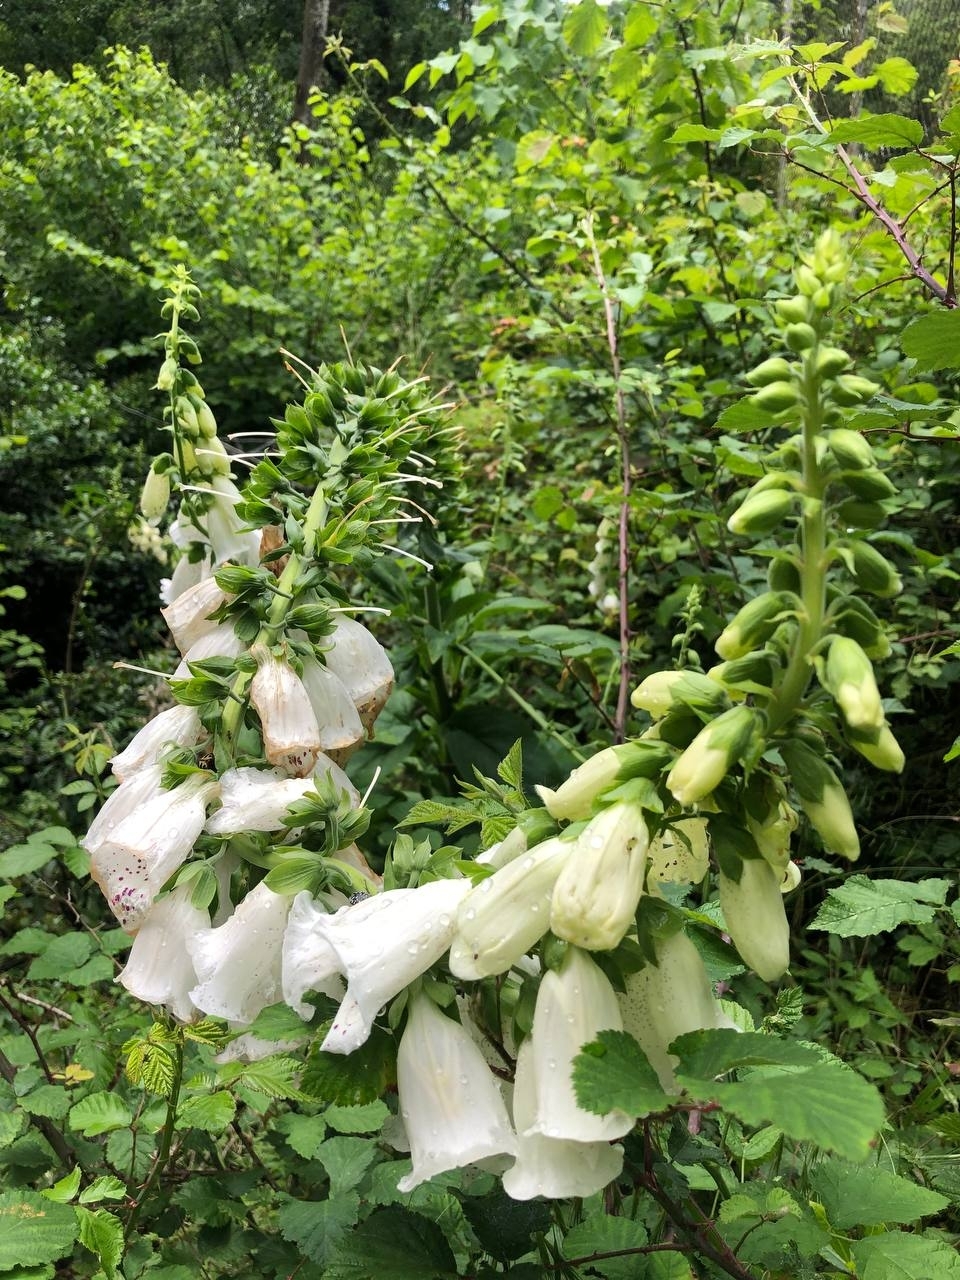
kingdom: Plantae
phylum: Tracheophyta
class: Magnoliopsida
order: Lamiales
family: Plantaginaceae
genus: Digitalis
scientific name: Digitalis purpurea
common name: Foxglove
